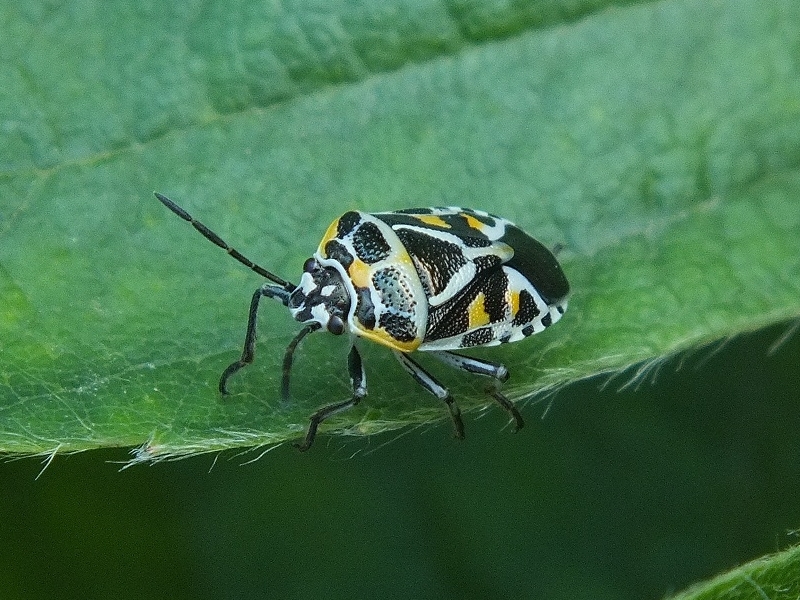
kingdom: Animalia
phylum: Arthropoda
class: Insecta
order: Hemiptera
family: Pentatomidae
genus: Eurydema
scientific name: Eurydema ornata
